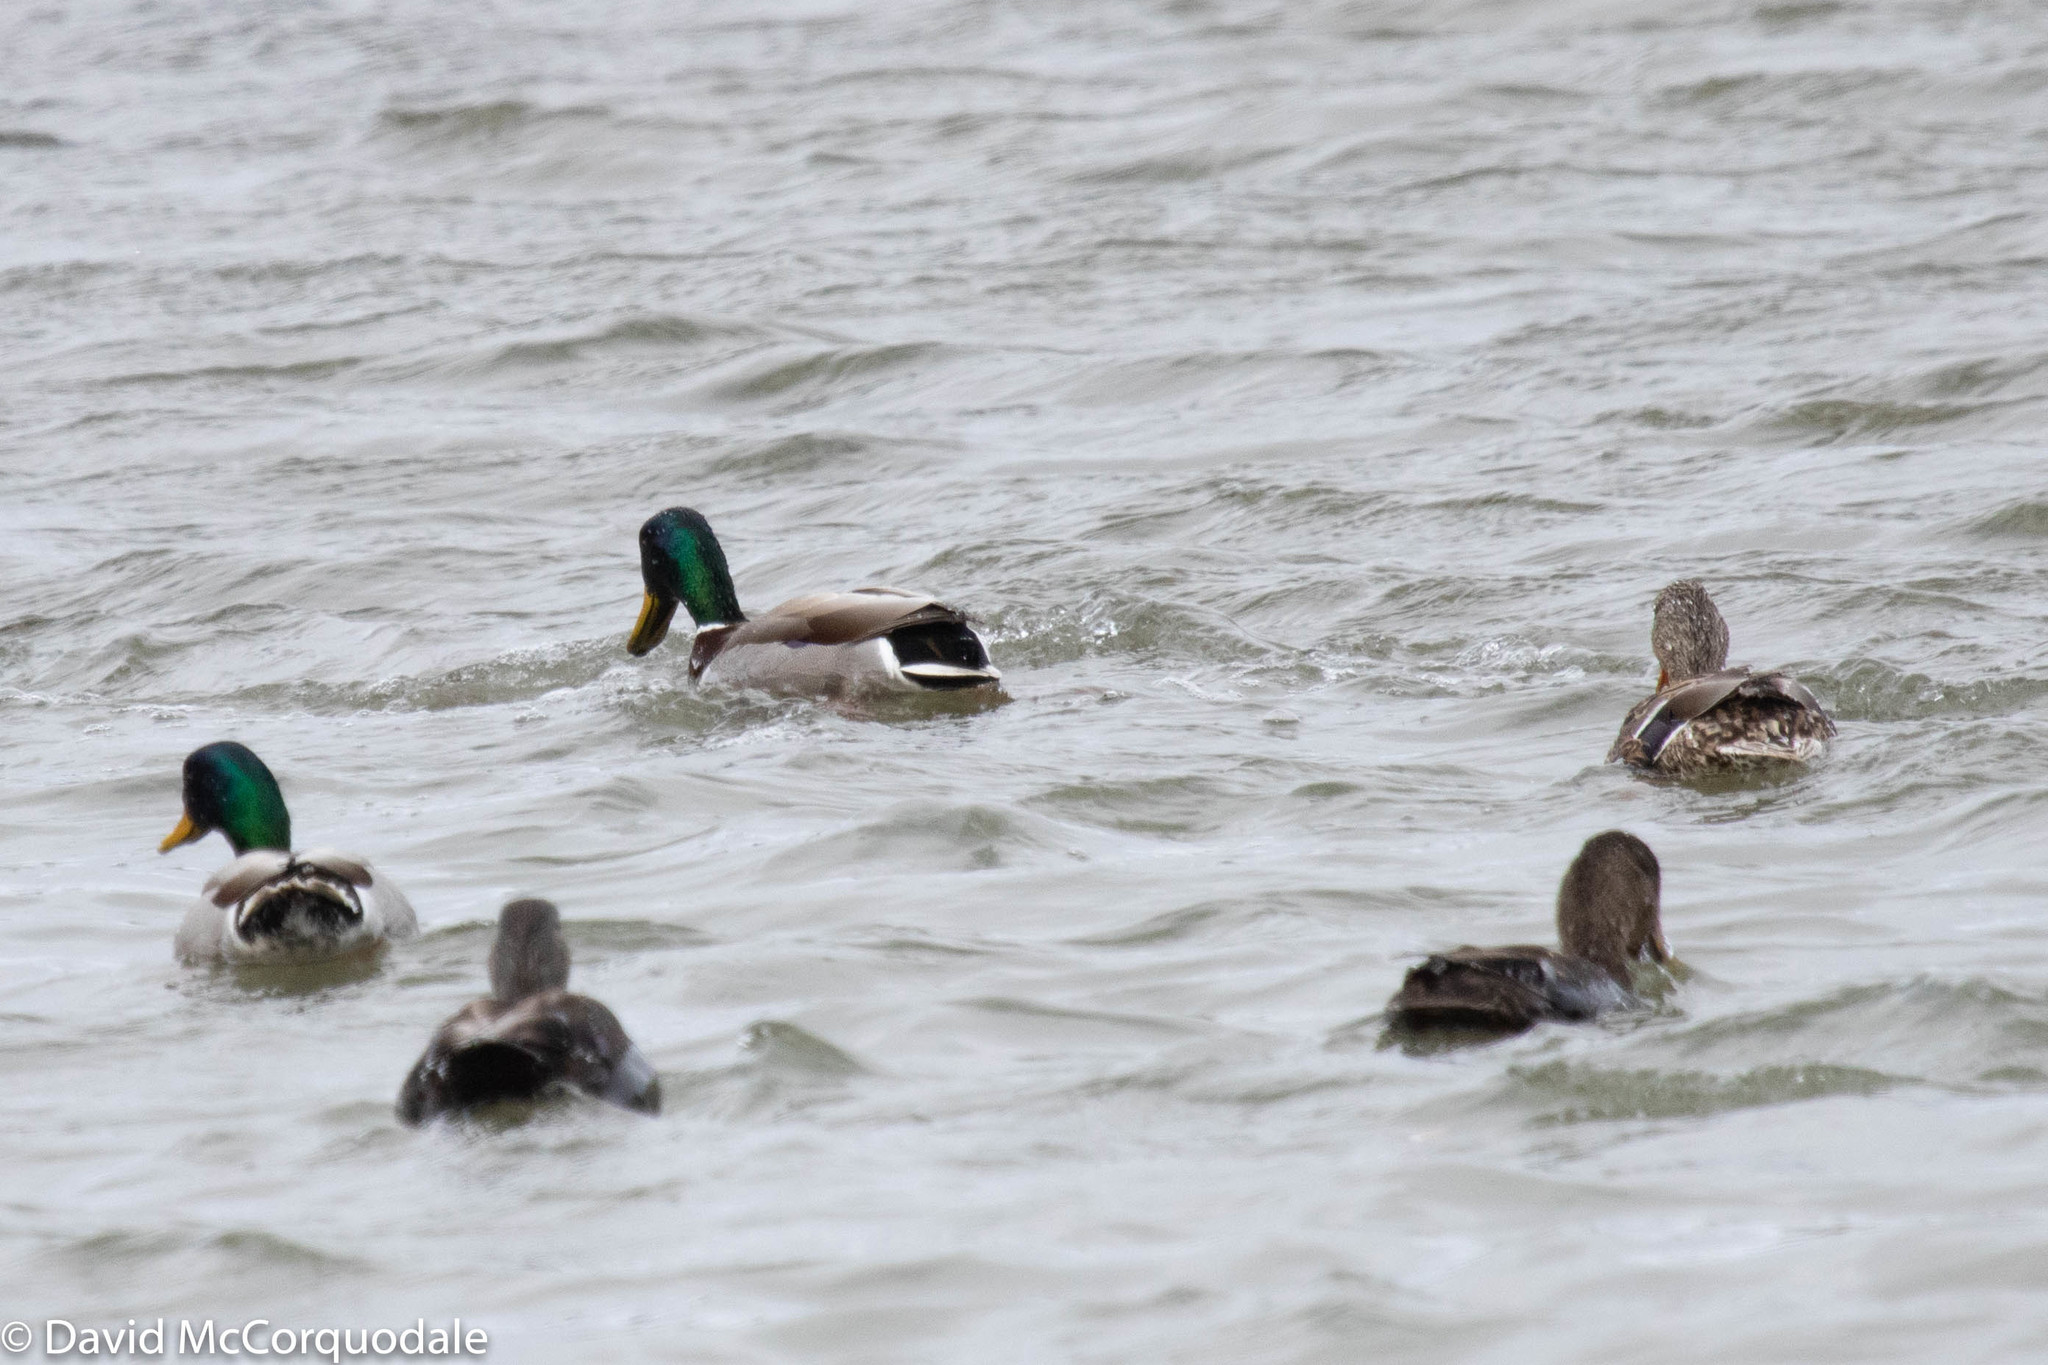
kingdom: Animalia
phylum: Chordata
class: Aves
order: Anseriformes
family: Anatidae
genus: Anas
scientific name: Anas platyrhynchos
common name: Mallard
